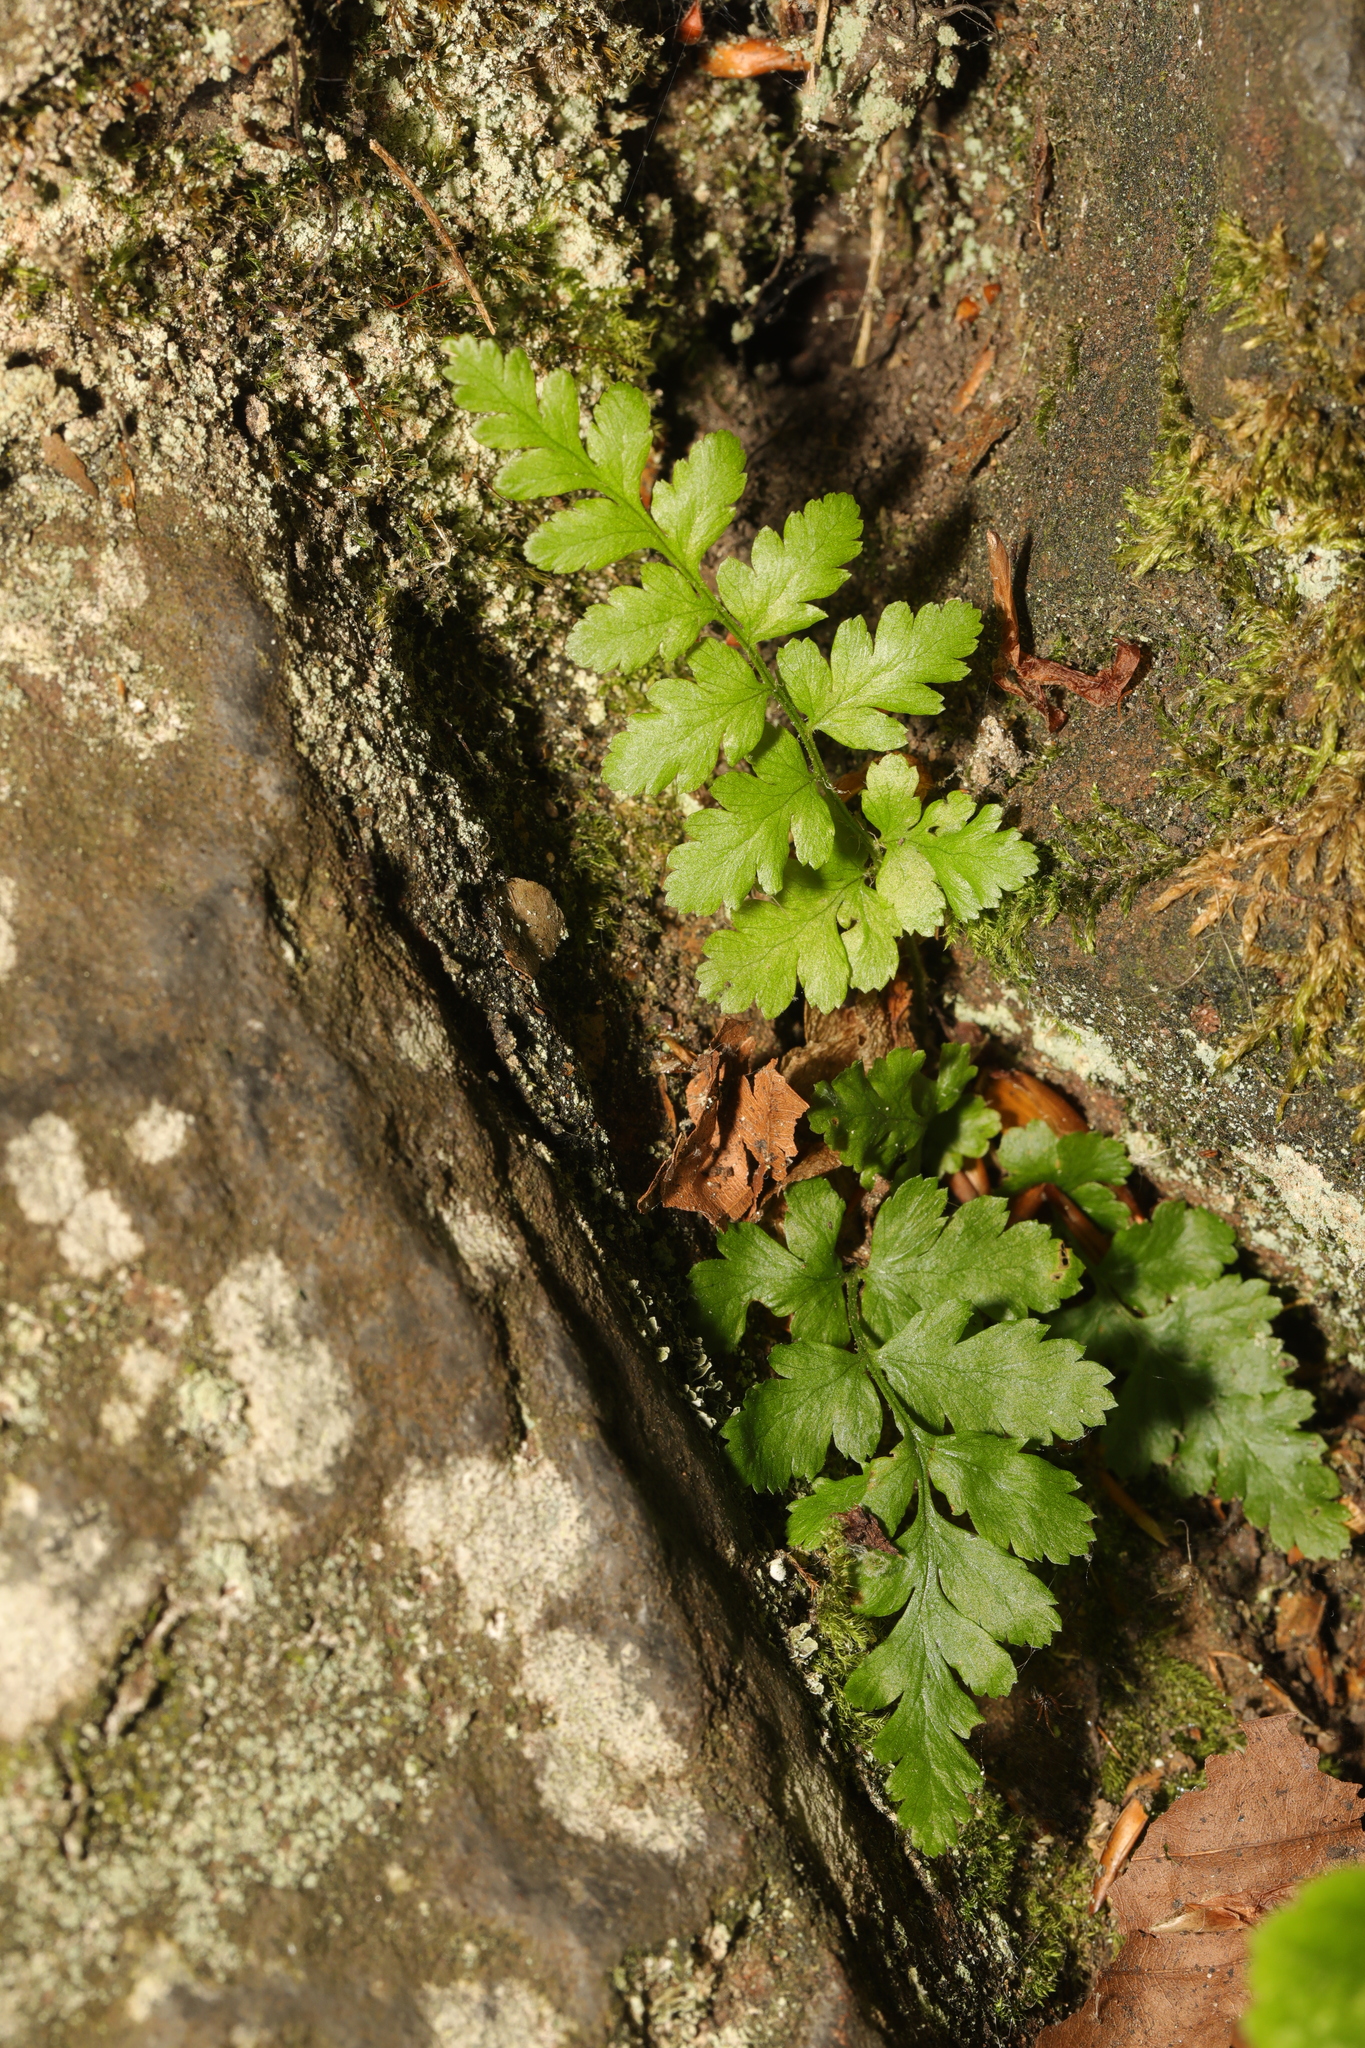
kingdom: Plantae
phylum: Tracheophyta
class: Polypodiopsida
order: Polypodiales
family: Aspleniaceae
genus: Asplenium
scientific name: Asplenium adiantum-nigrum
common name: Black spleenwort
